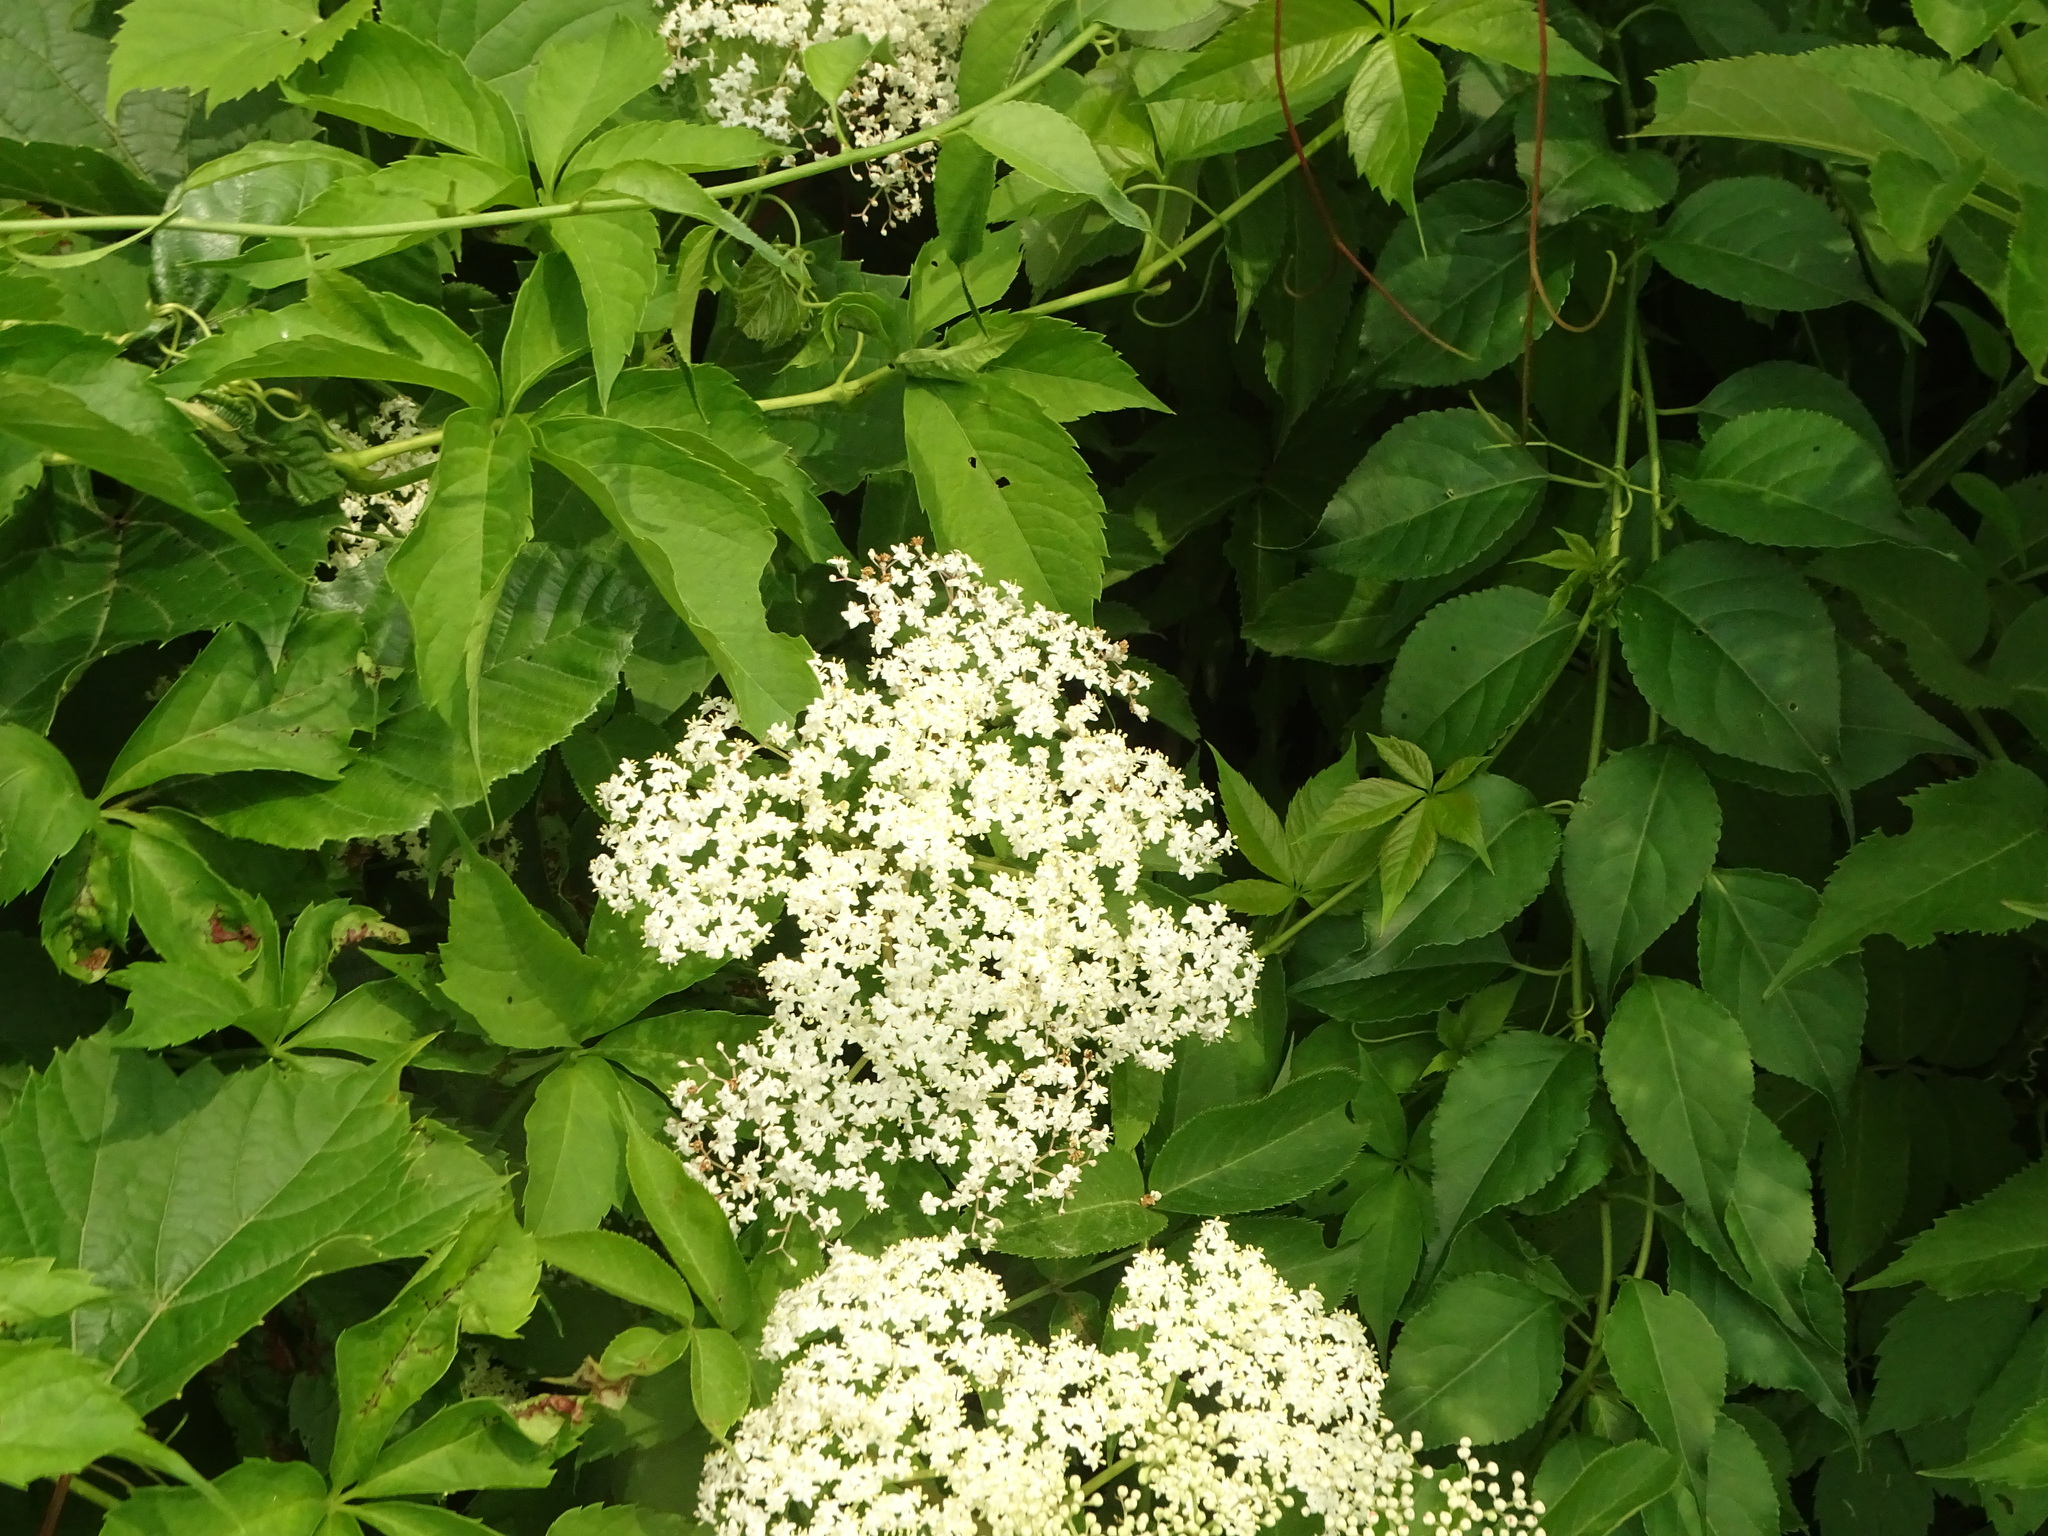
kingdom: Plantae
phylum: Tracheophyta
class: Magnoliopsida
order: Dipsacales
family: Viburnaceae
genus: Sambucus
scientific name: Sambucus canadensis
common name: American elder
